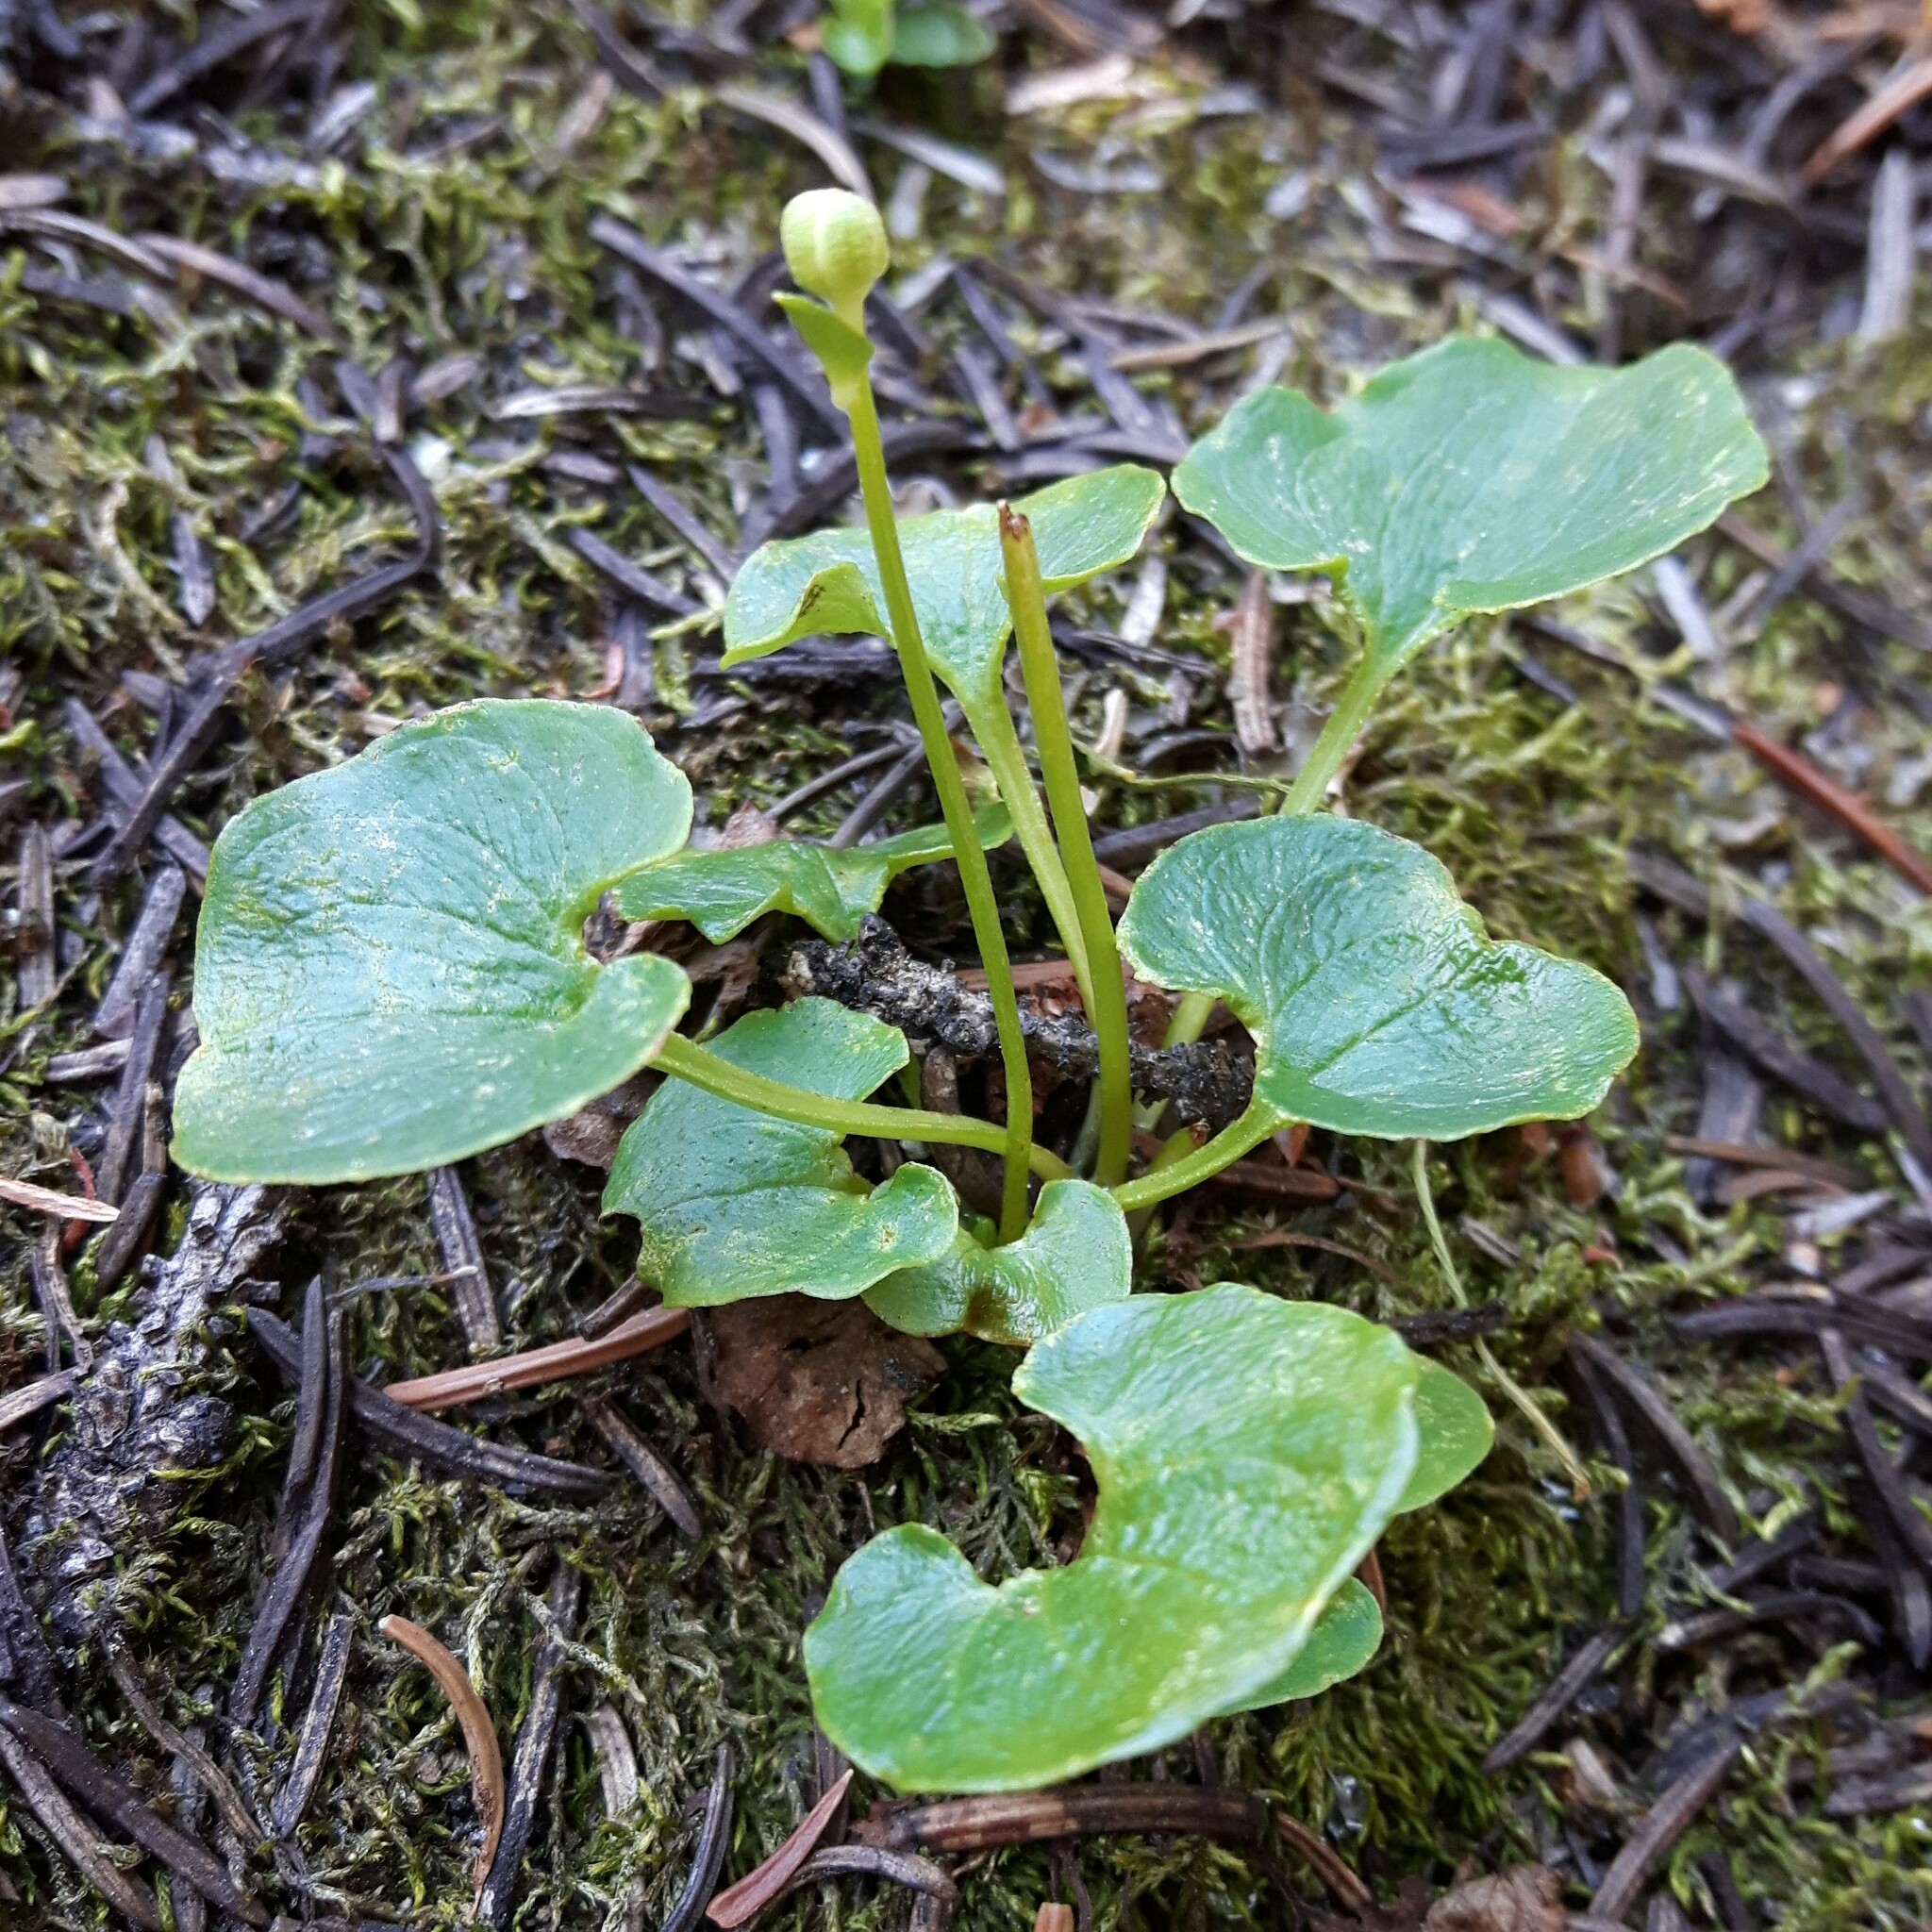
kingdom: Plantae
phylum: Tracheophyta
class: Magnoliopsida
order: Celastrales
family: Parnassiaceae
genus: Parnassia
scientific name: Parnassia fimbriata
